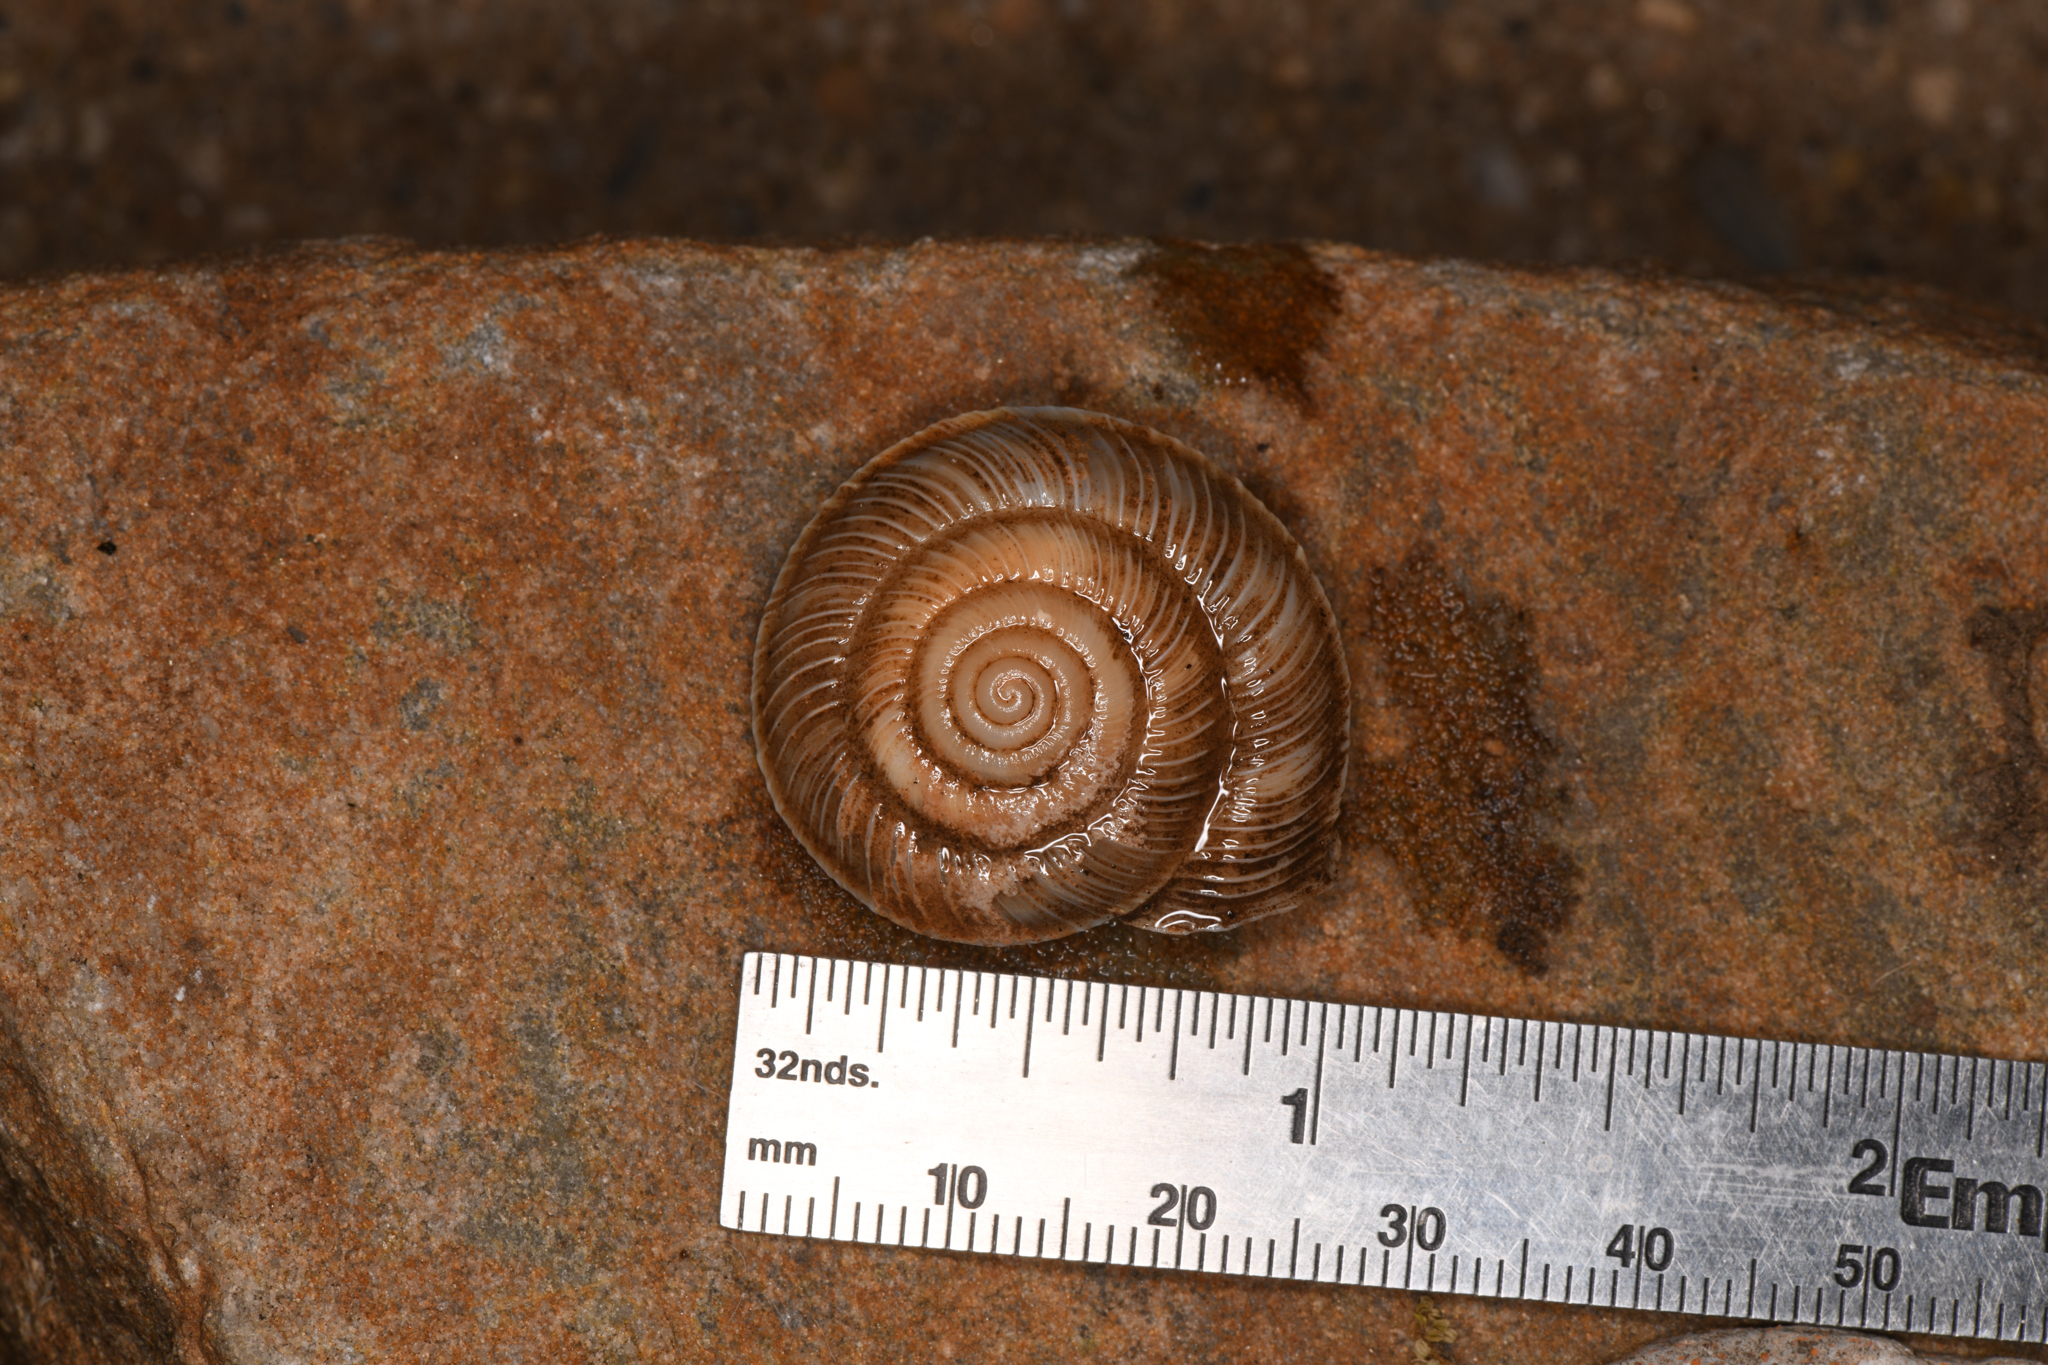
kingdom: Animalia
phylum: Mollusca
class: Gastropoda
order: Stylommatophora
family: Xanthonychidae
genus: Monadenia
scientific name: Monadenia circumcarinata
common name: Keeled sideband
